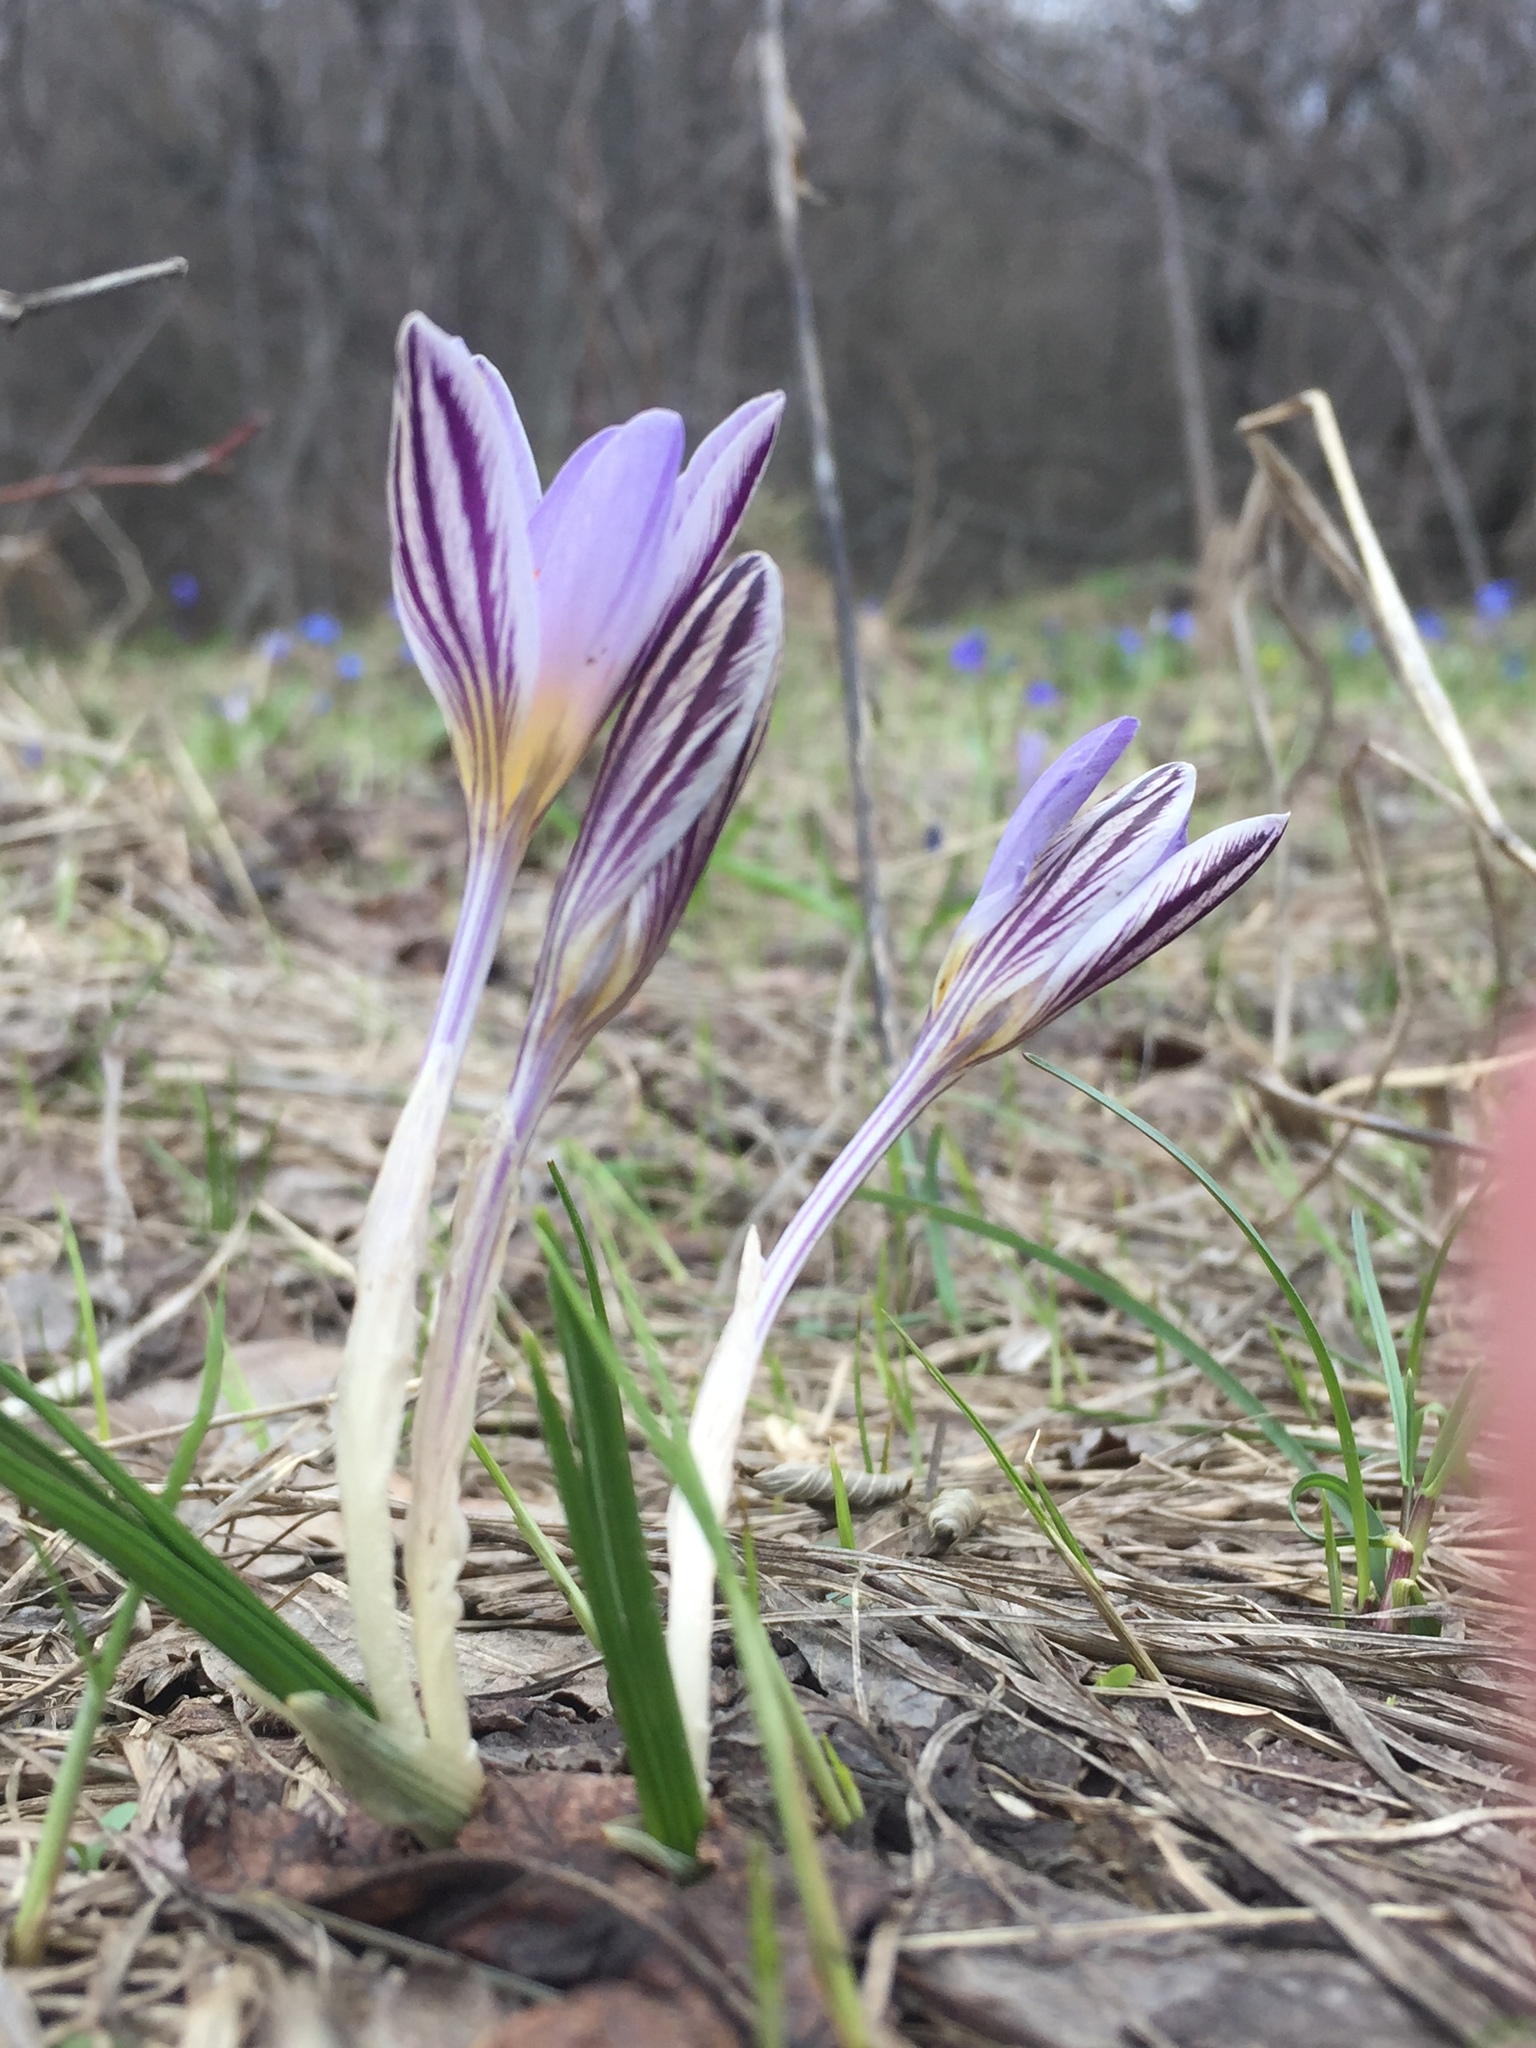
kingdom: Plantae
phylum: Tracheophyta
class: Liliopsida
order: Asparagales
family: Iridaceae
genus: Crocus
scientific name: Crocus reticulatus
